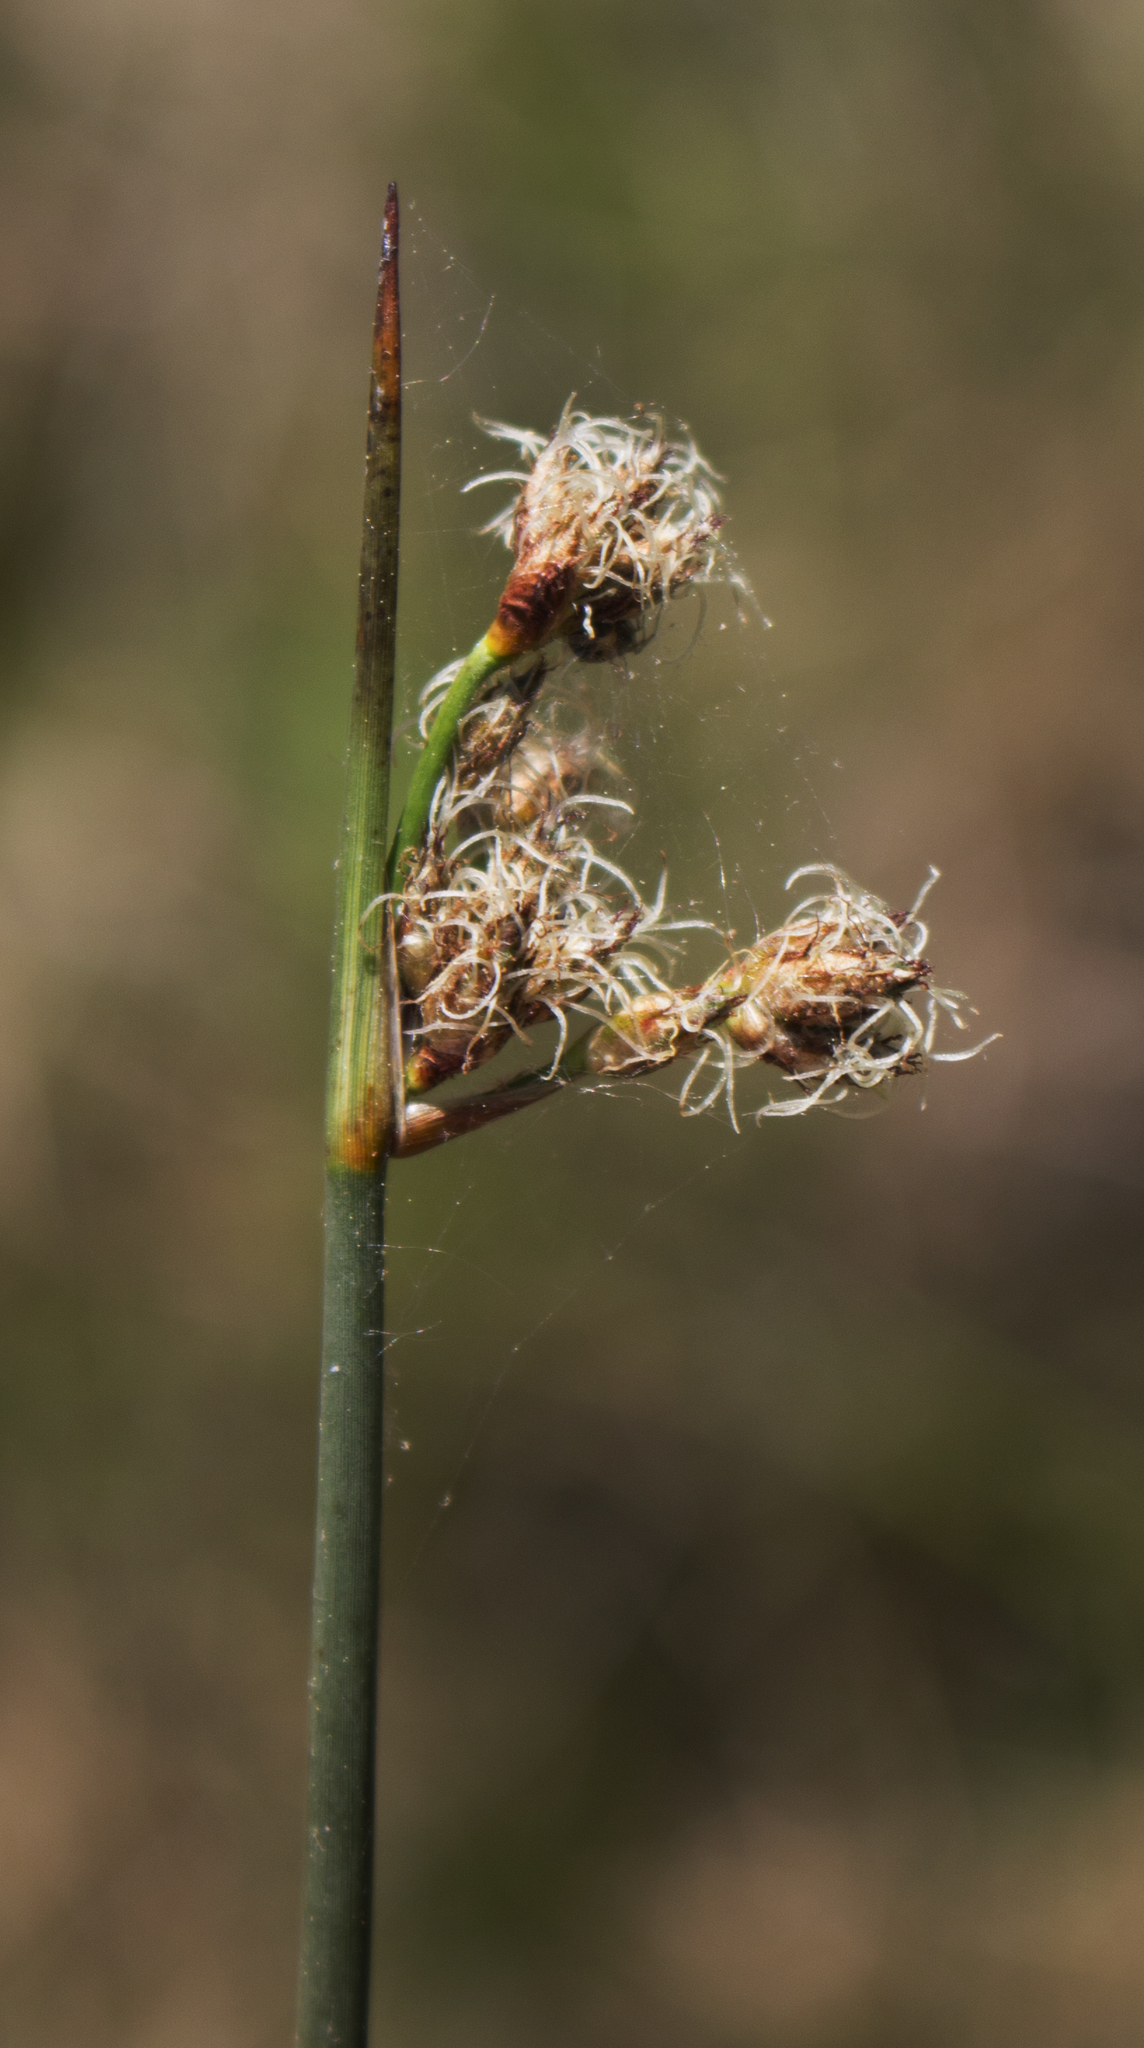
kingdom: Plantae
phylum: Tracheophyta
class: Liliopsida
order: Poales
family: Cyperaceae
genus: Schoenoplectus
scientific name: Schoenoplectus acutus
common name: Hardstem bulrush
